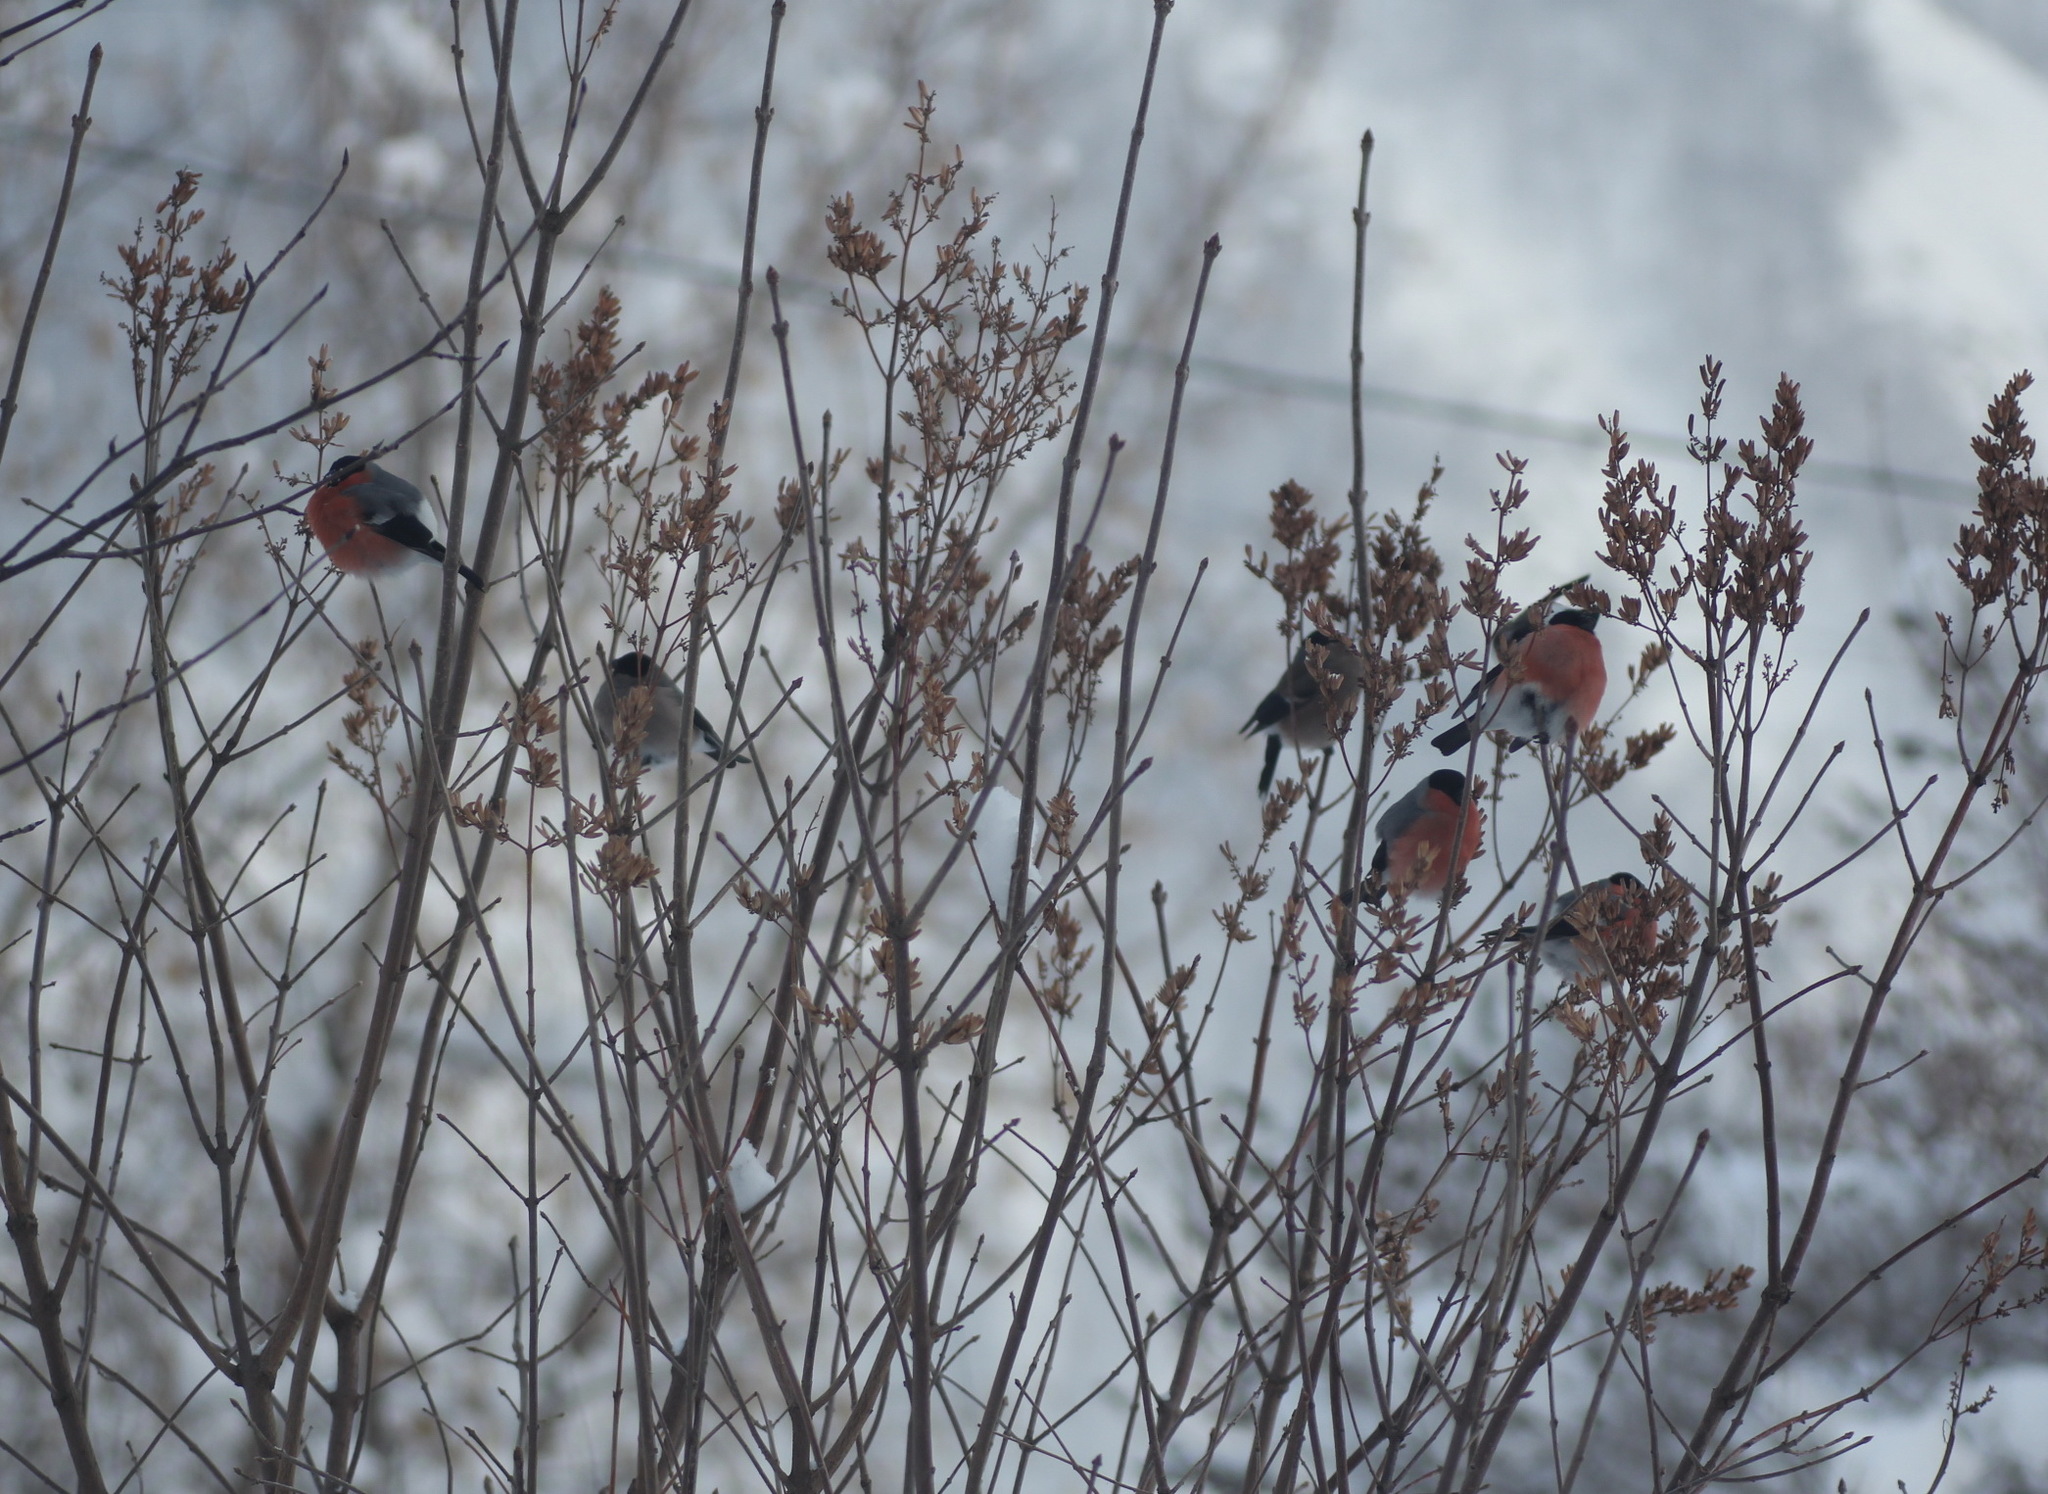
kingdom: Animalia
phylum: Chordata
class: Aves
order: Passeriformes
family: Fringillidae
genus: Pyrrhula
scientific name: Pyrrhula pyrrhula
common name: Eurasian bullfinch
